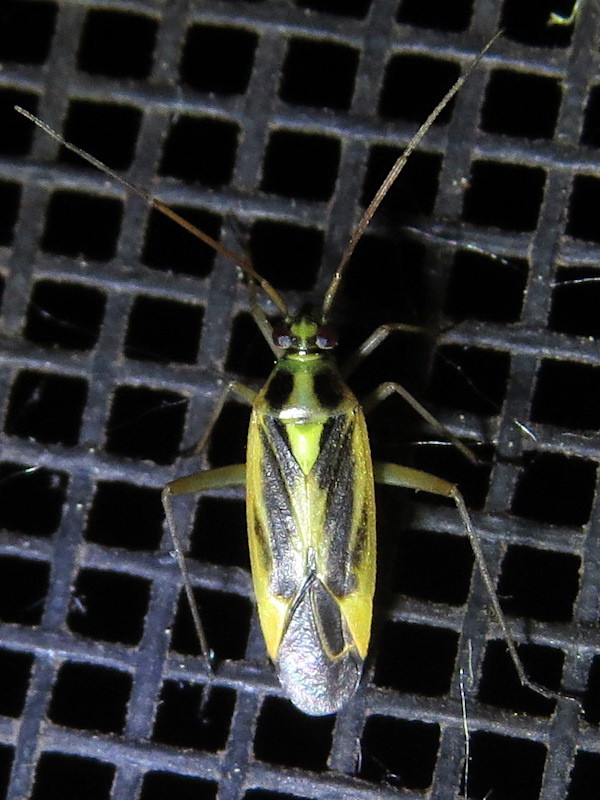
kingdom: Animalia
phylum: Arthropoda
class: Insecta
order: Hemiptera
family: Miridae
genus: Stenotus
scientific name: Stenotus binotatus
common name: Plant bug
